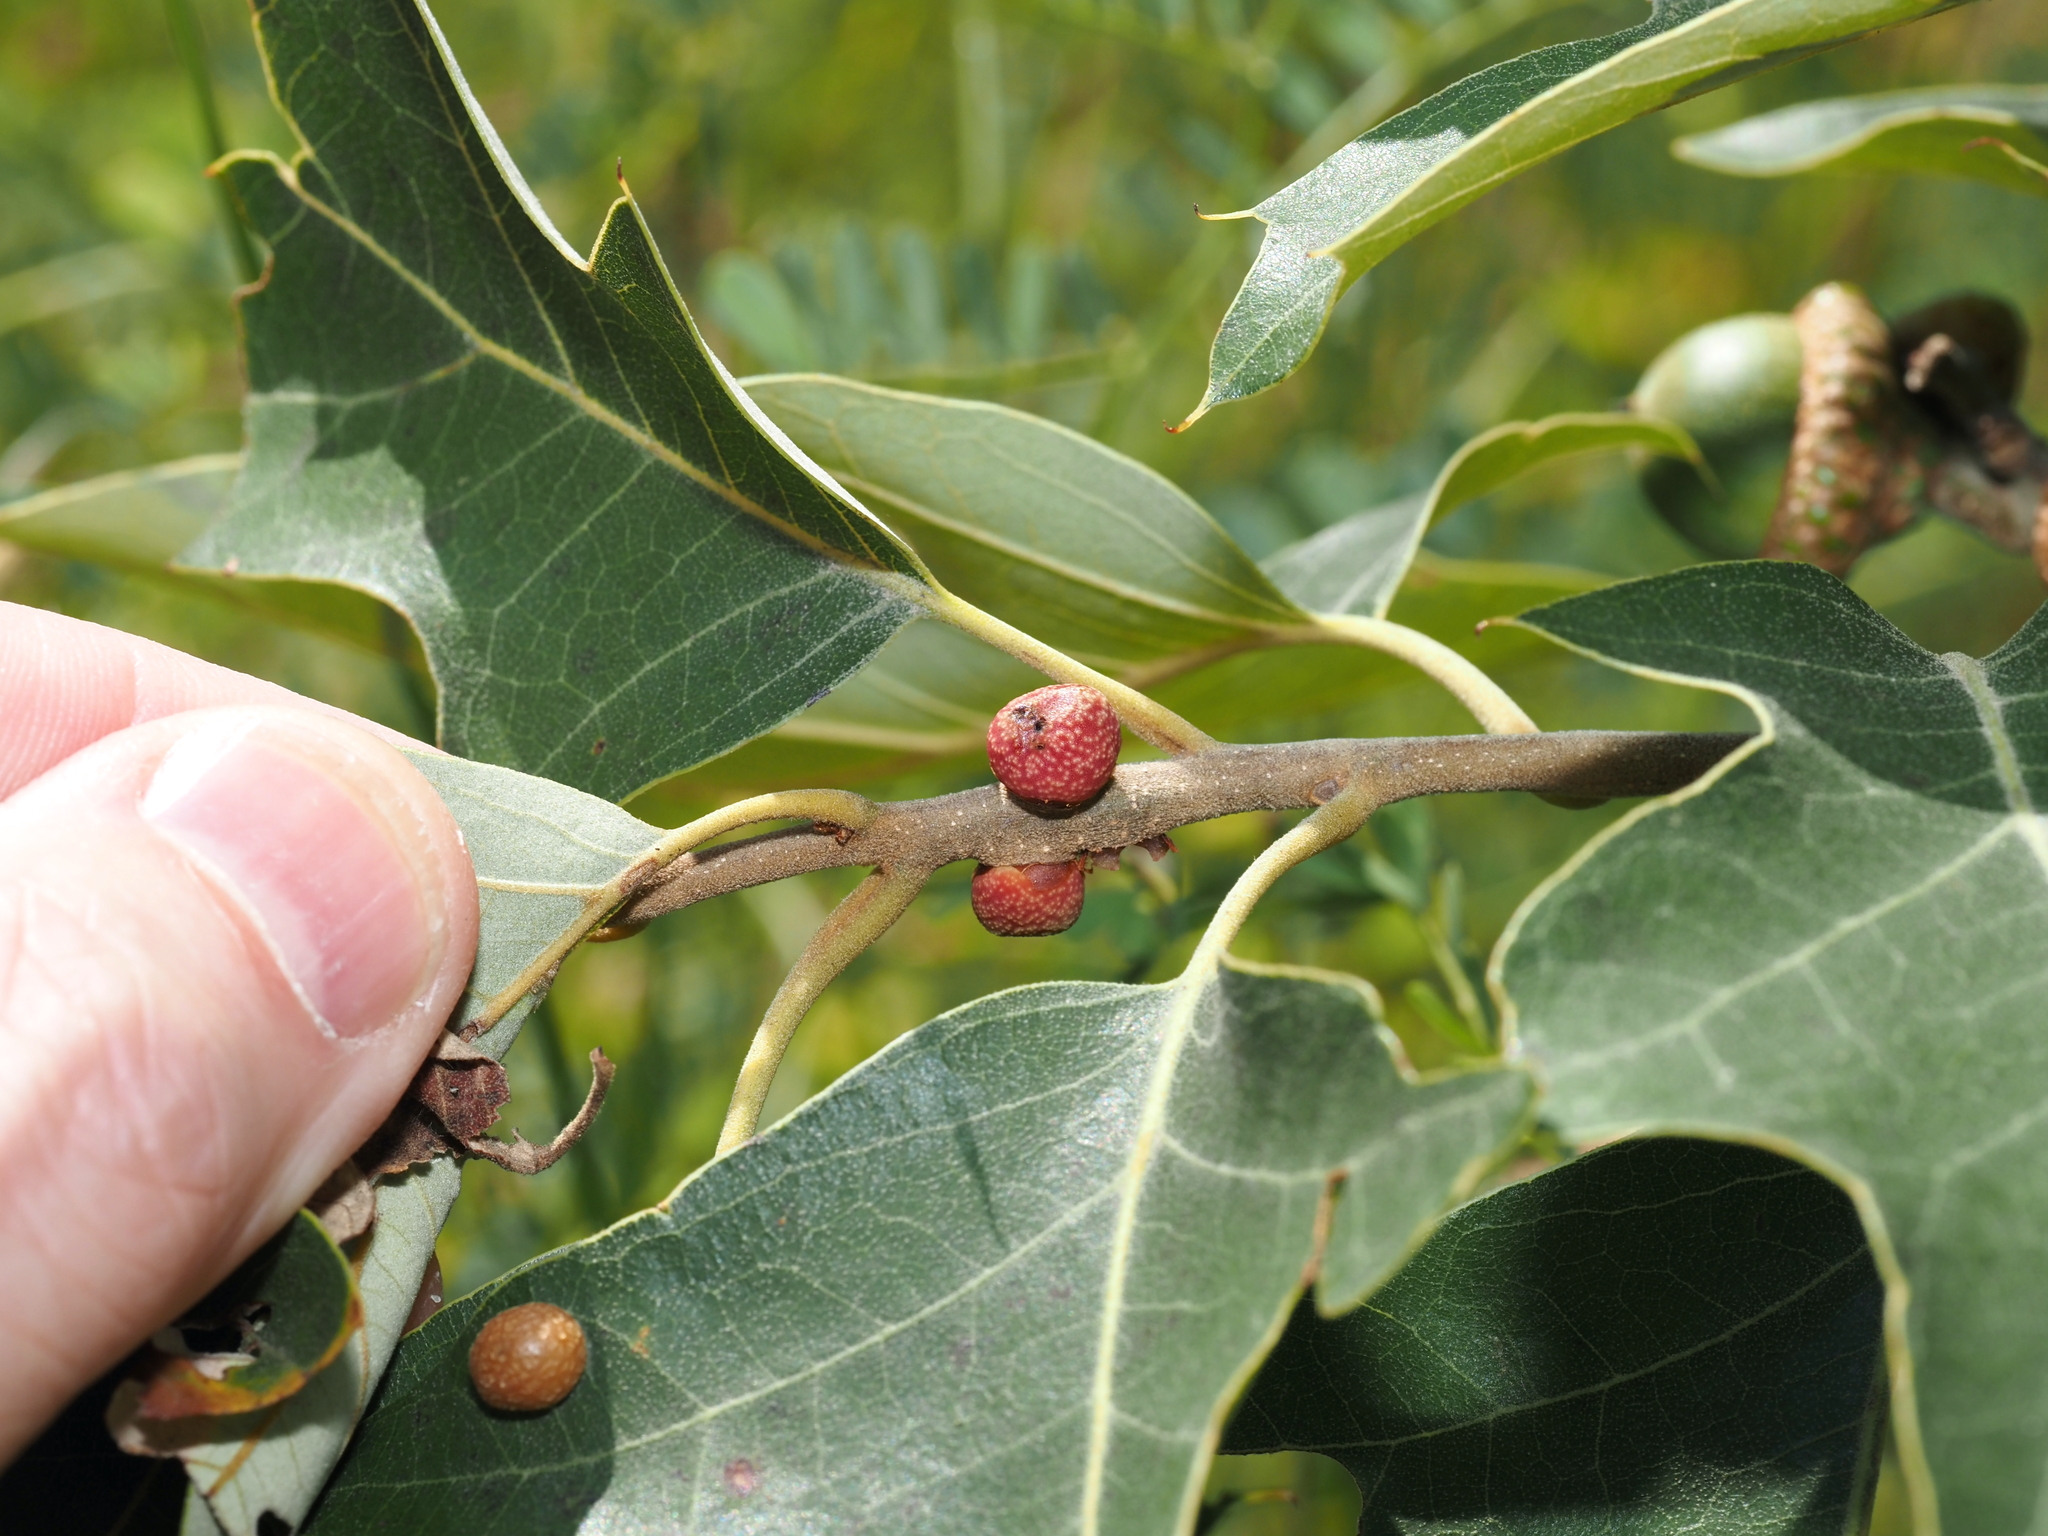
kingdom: Animalia
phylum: Arthropoda
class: Insecta
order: Hymenoptera
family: Cynipidae
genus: Kokkocynips
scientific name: Kokkocynips imbricariae
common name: Banded bullet gall wasp
